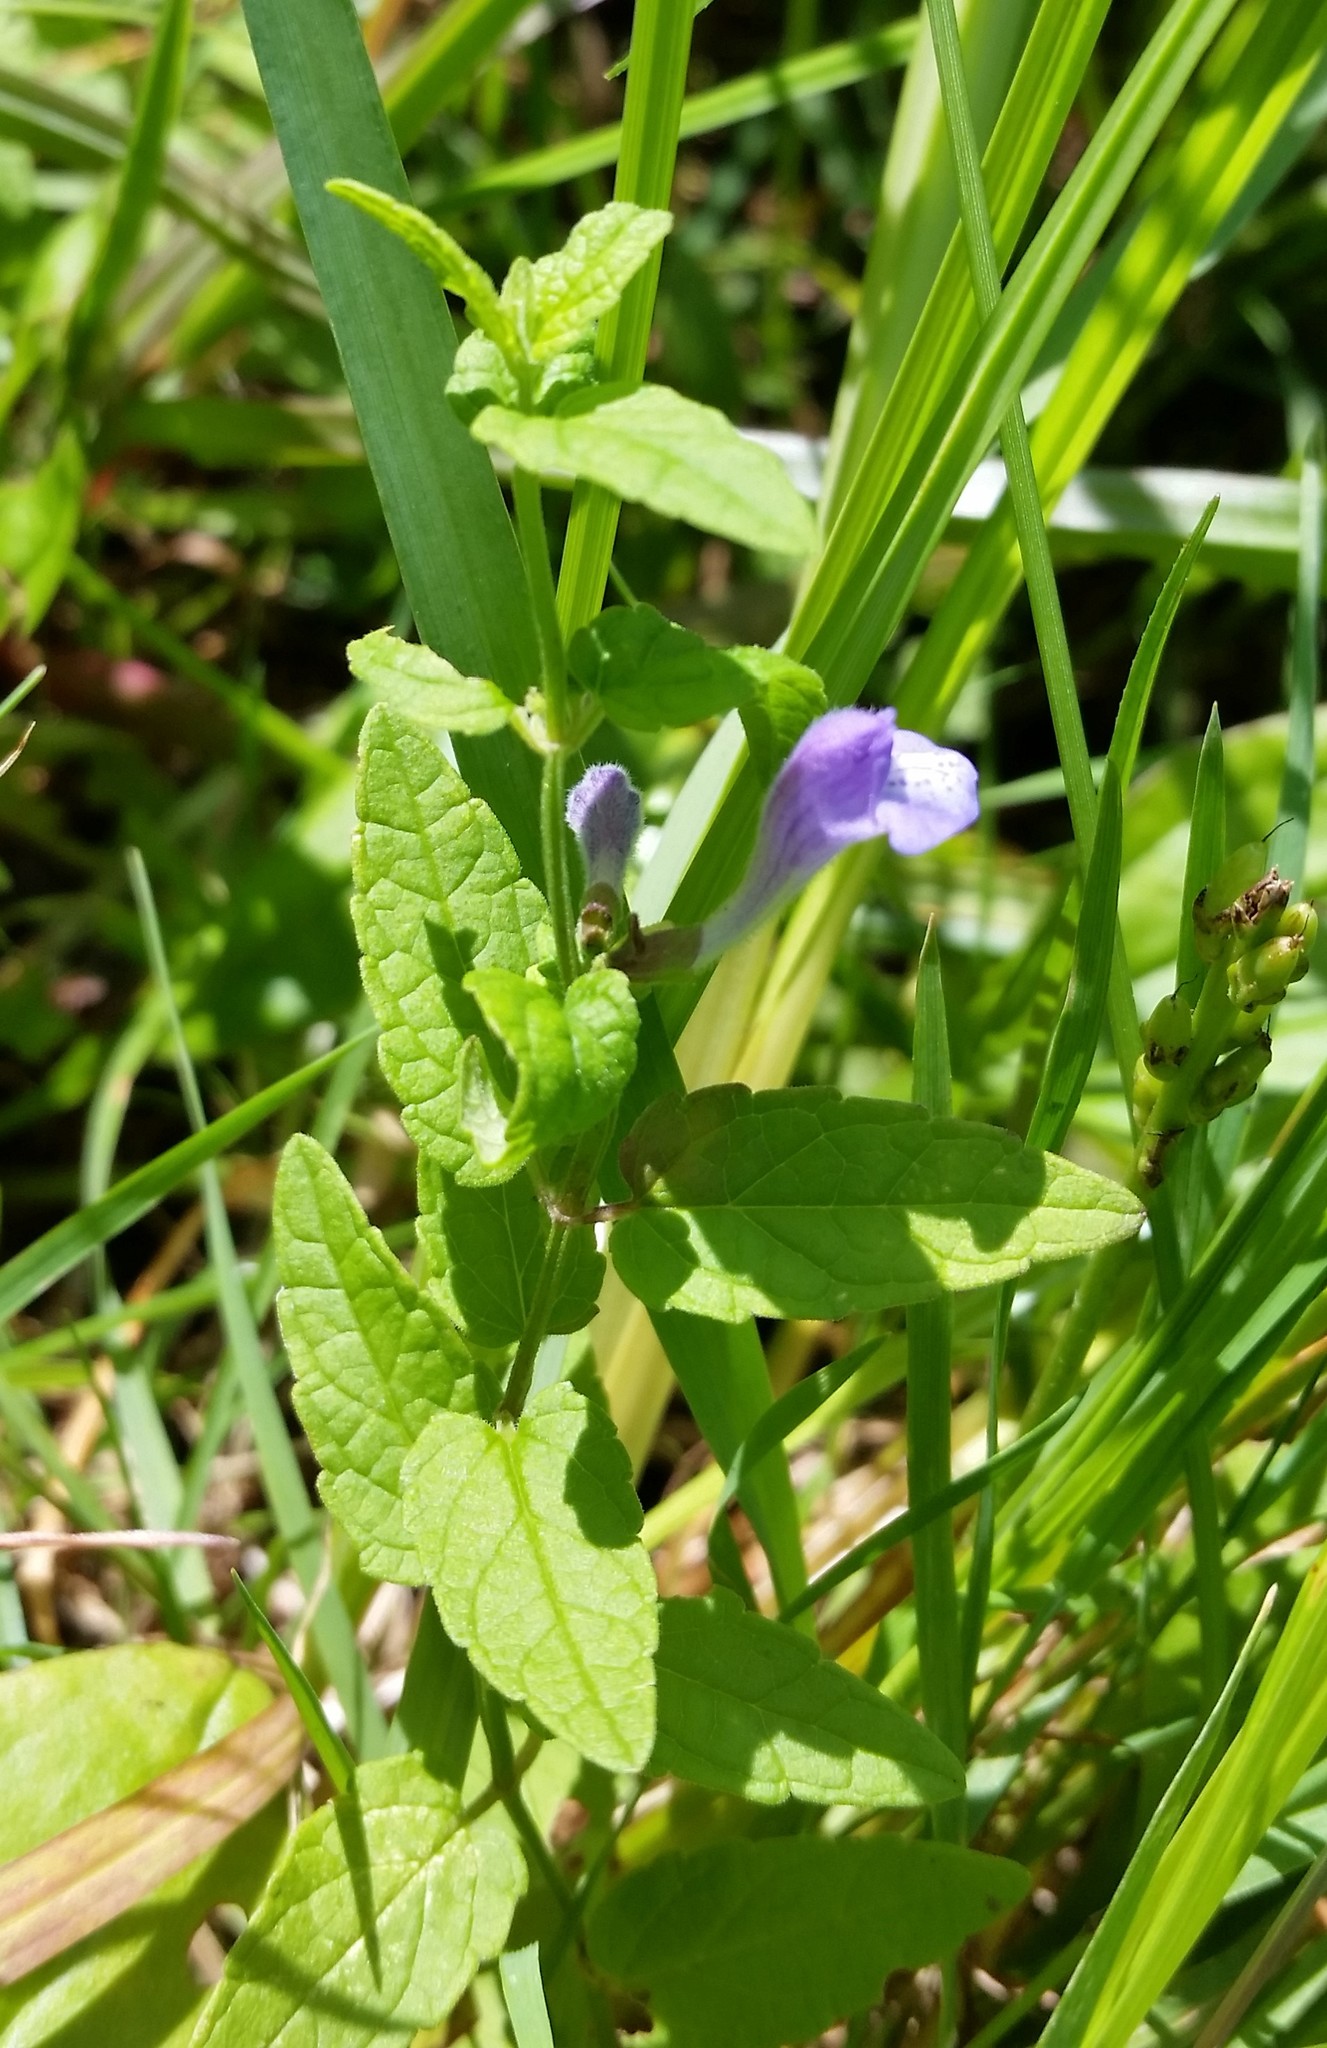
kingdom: Plantae
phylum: Tracheophyta
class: Magnoliopsida
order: Lamiales
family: Lamiaceae
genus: Scutellaria
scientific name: Scutellaria galericulata
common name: Skullcap
